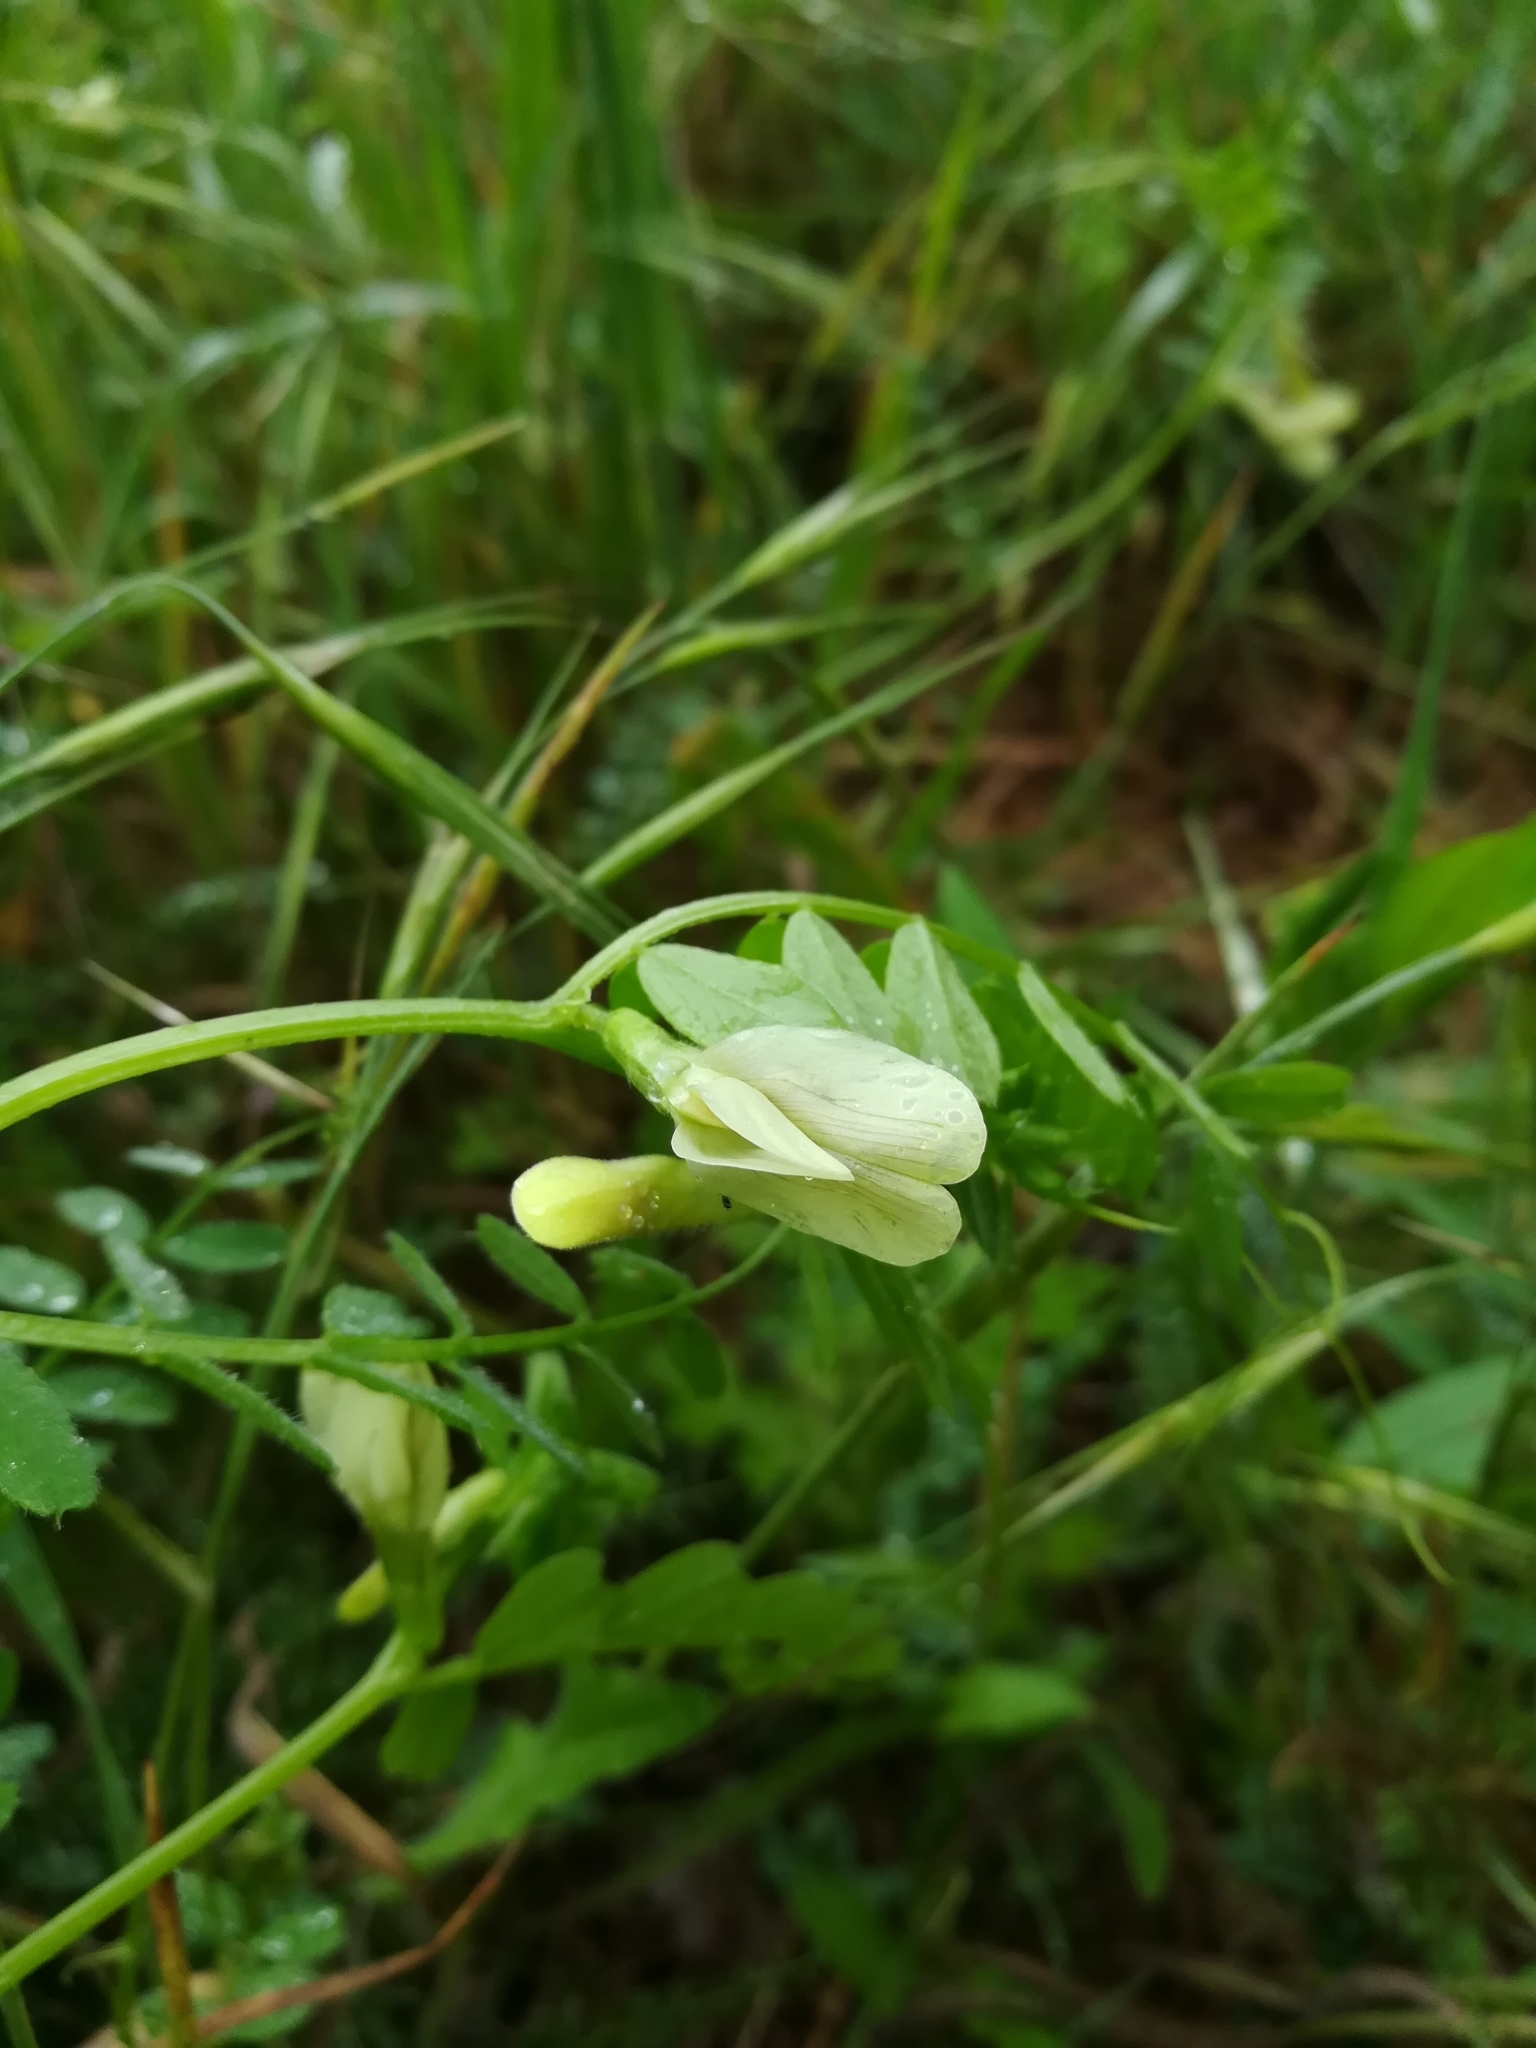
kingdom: Plantae
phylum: Tracheophyta
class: Magnoliopsida
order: Fabales
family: Fabaceae
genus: Vicia
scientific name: Vicia hybrida
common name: Hairy yellow vetch
